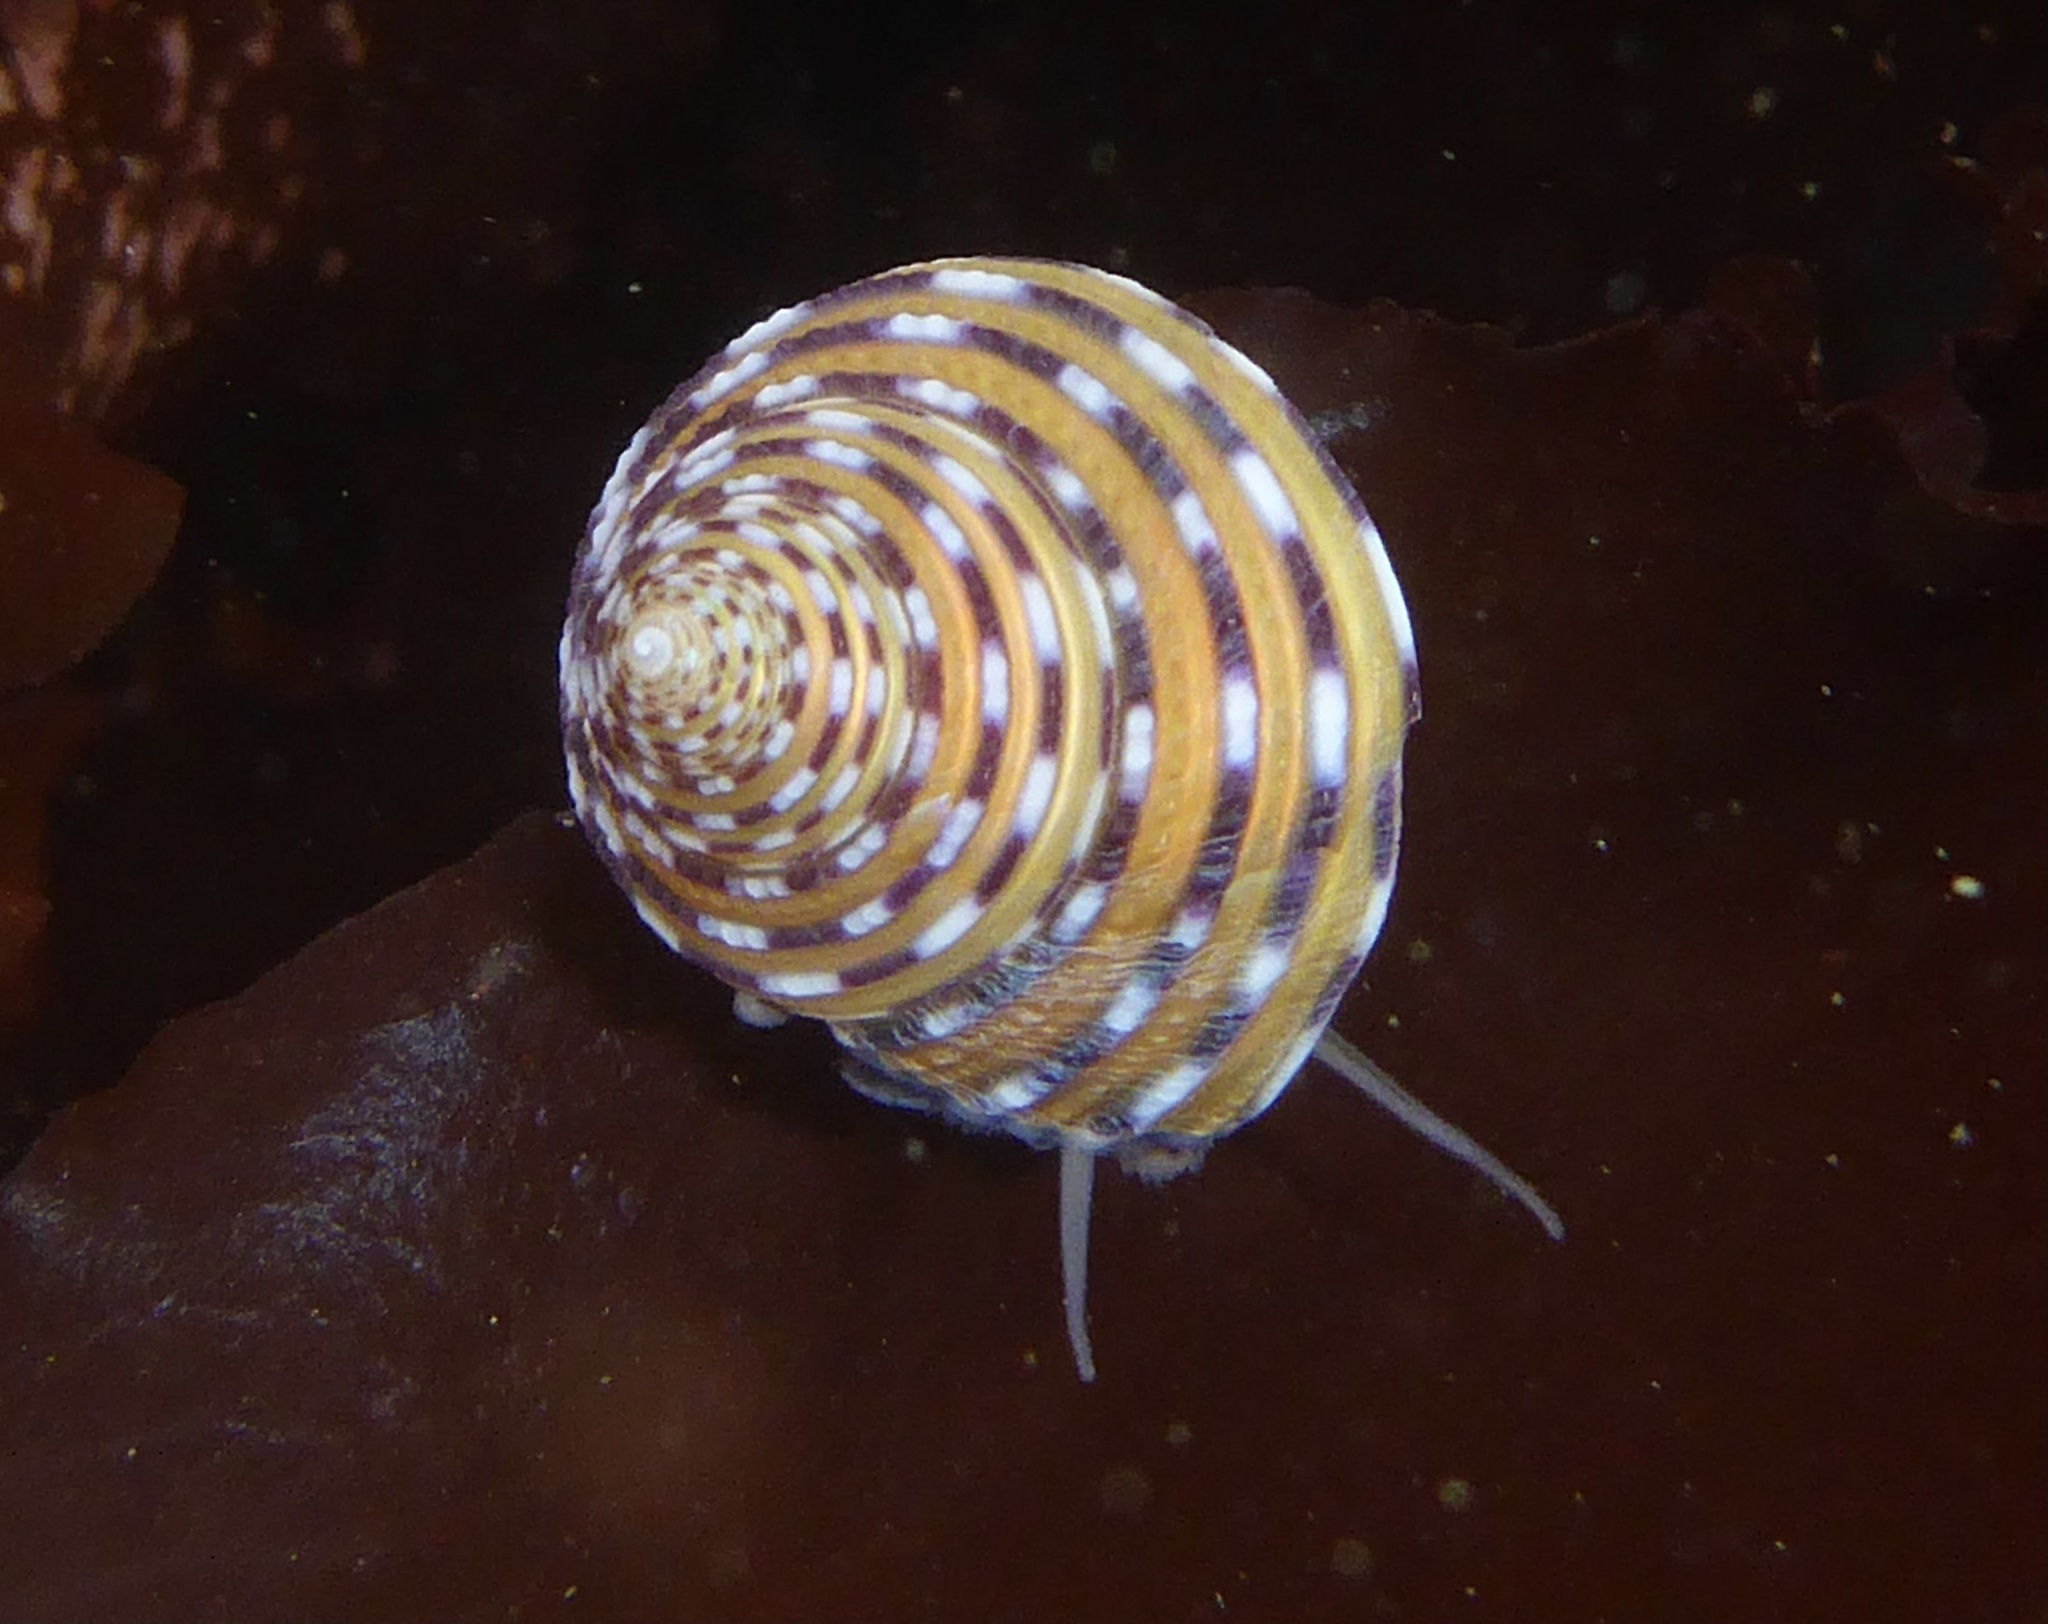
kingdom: Animalia
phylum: Mollusca
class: Gastropoda
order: Trochida
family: Calliostomatidae
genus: Calliostoma
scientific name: Calliostoma tricolor
